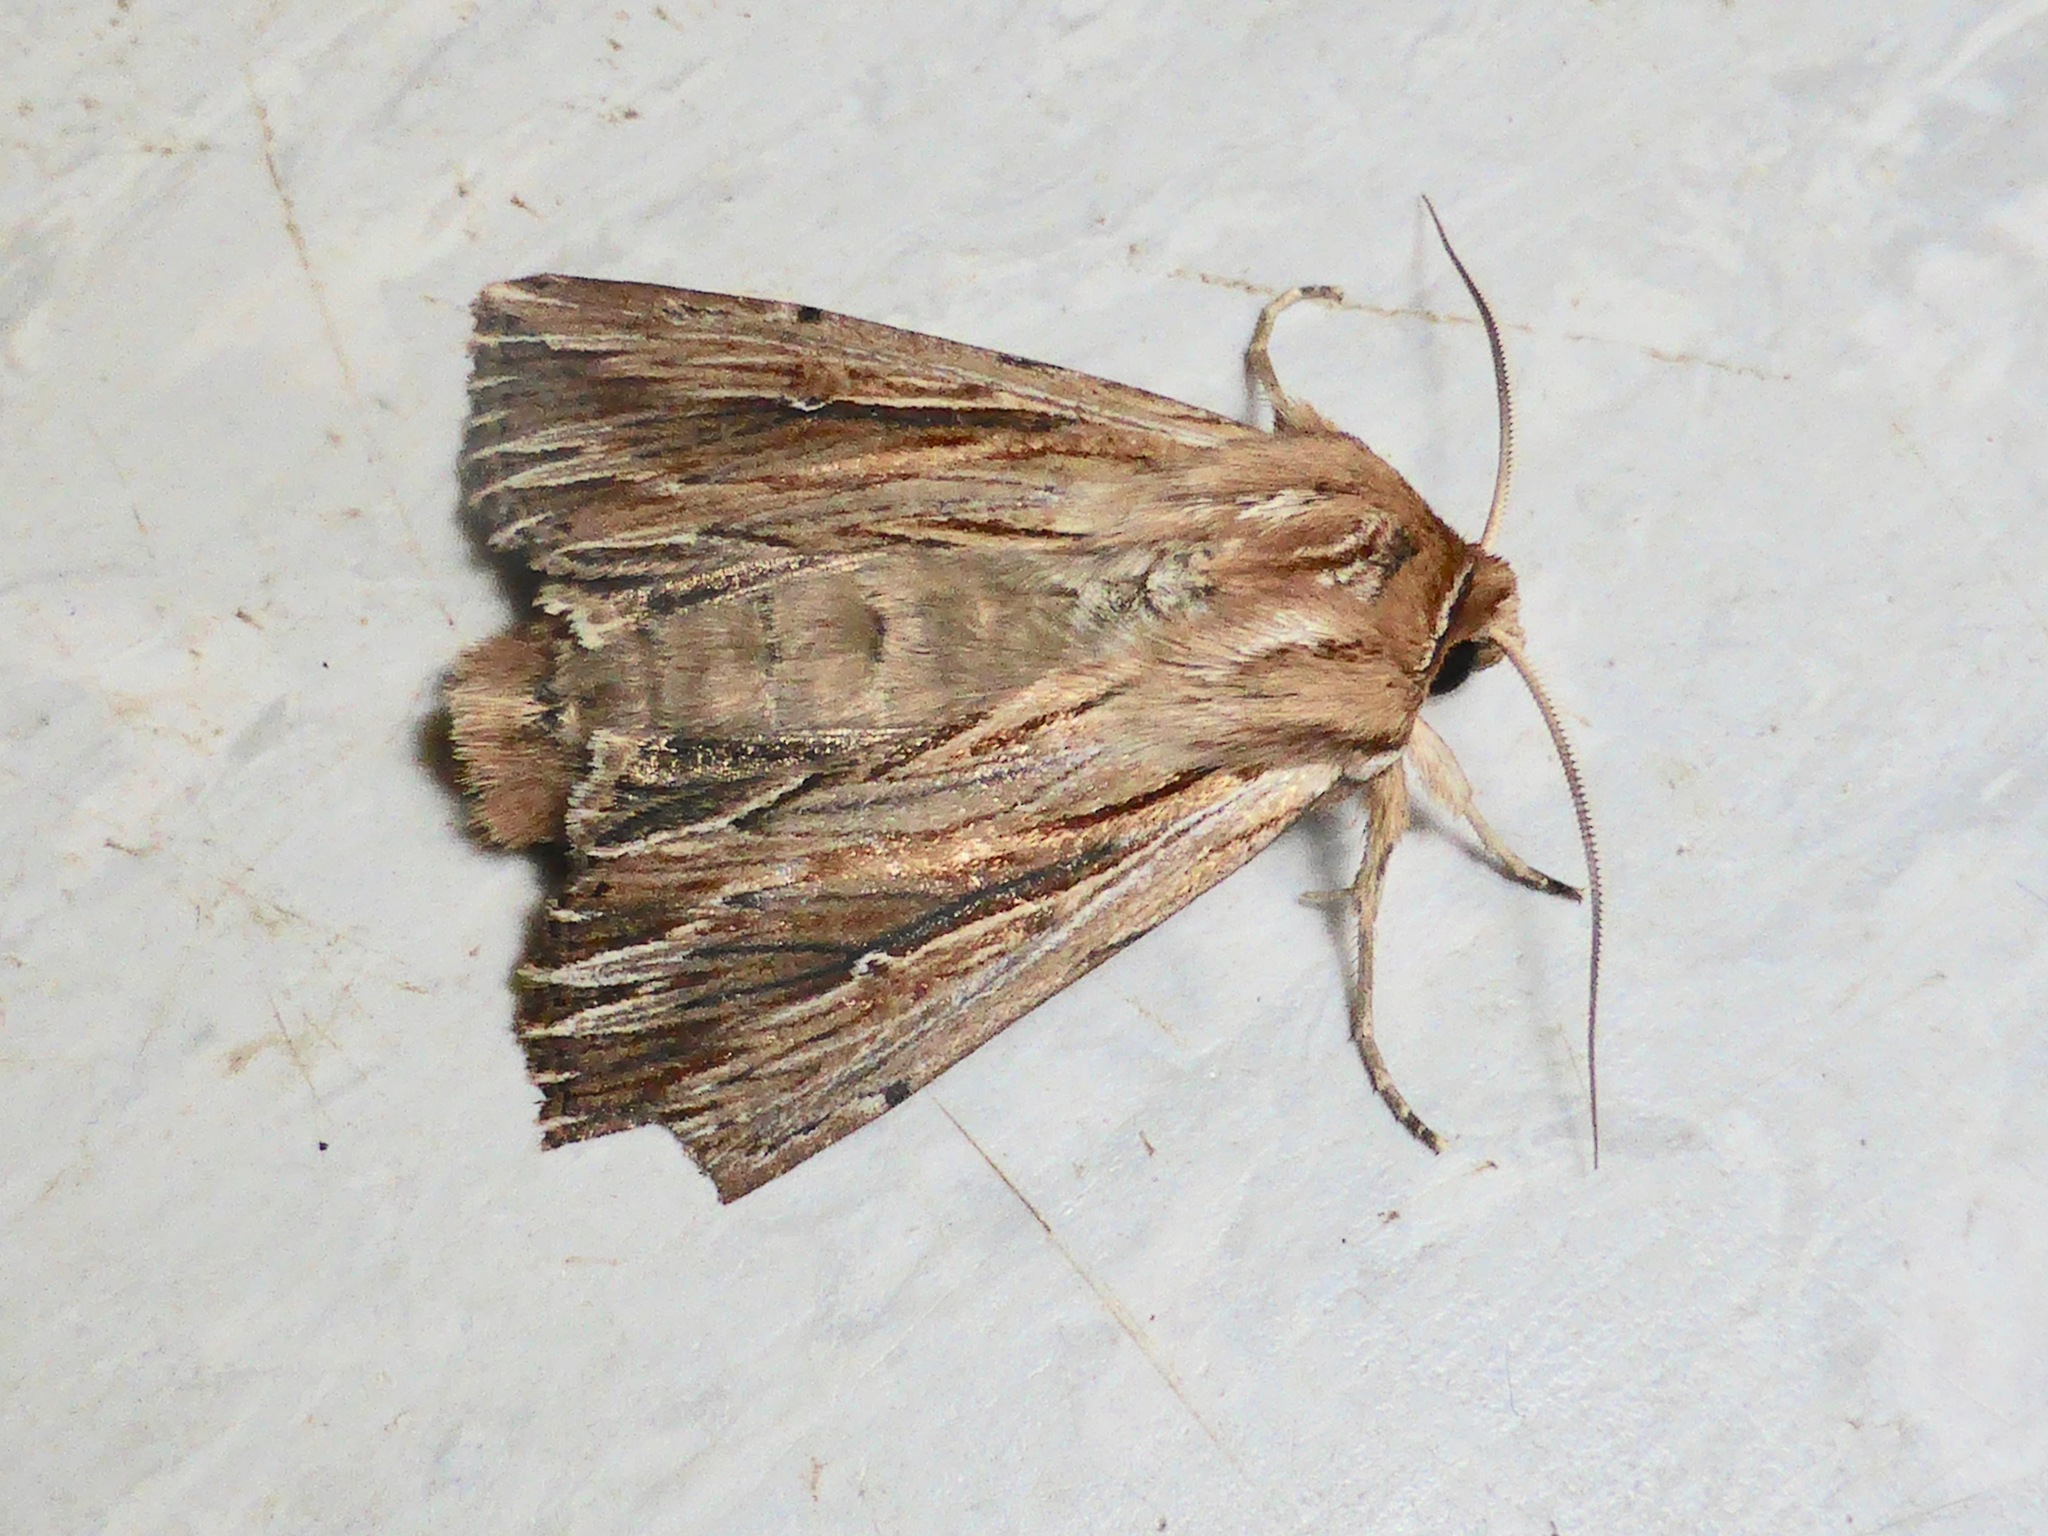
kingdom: Animalia
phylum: Arthropoda
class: Insecta
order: Lepidoptera
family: Noctuidae
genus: Persectania
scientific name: Persectania aversa
